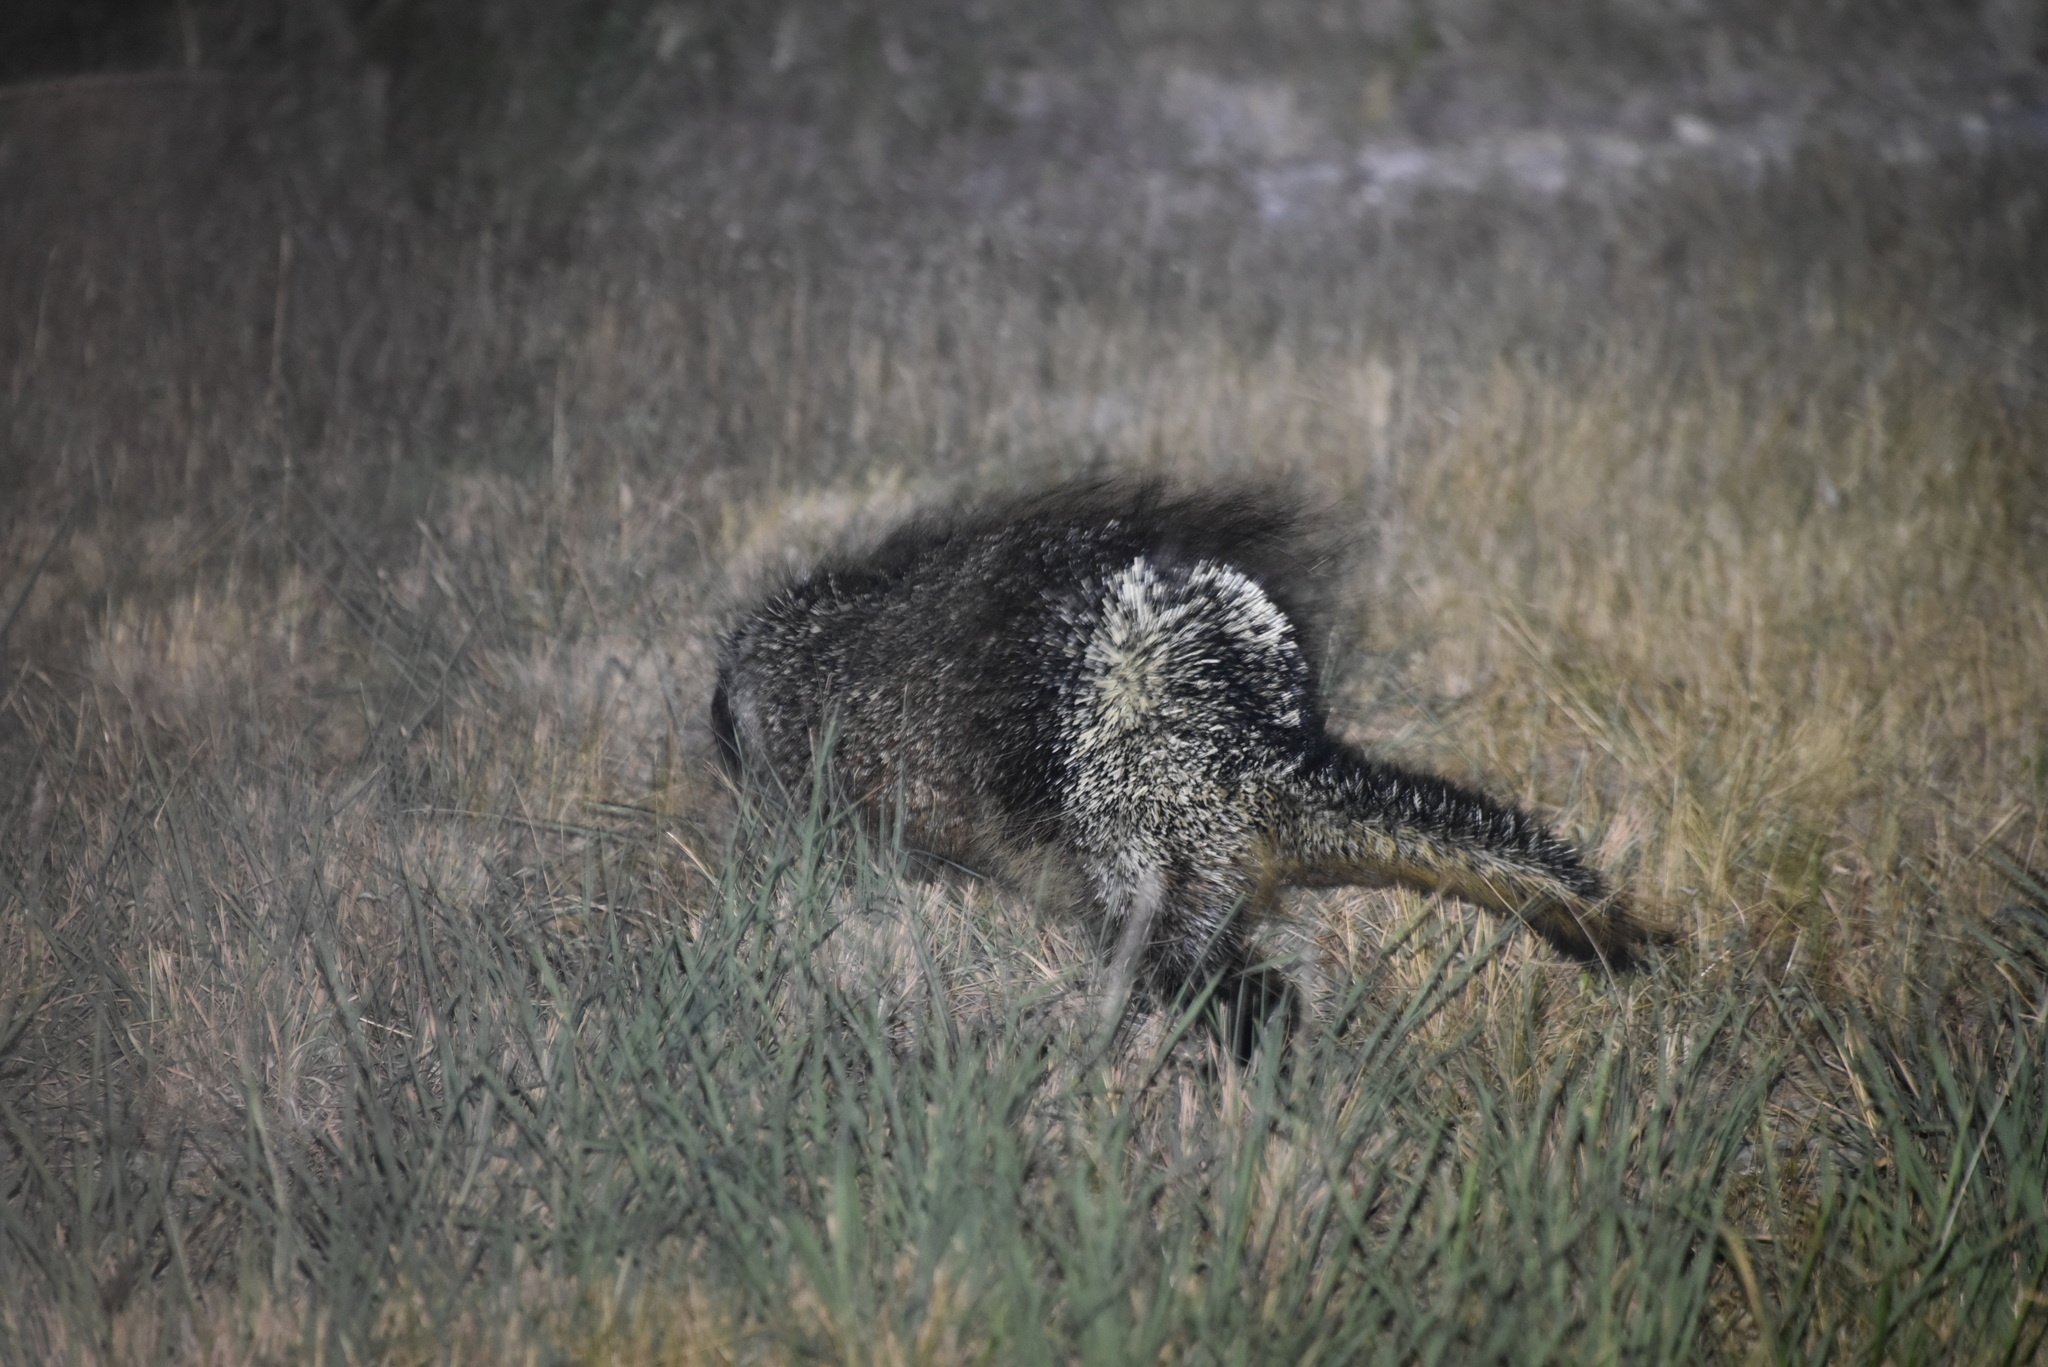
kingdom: Animalia
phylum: Chordata
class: Mammalia
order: Rodentia
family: Erethizontidae
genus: Erethizon
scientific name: Erethizon dorsatus
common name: North american porcupine
